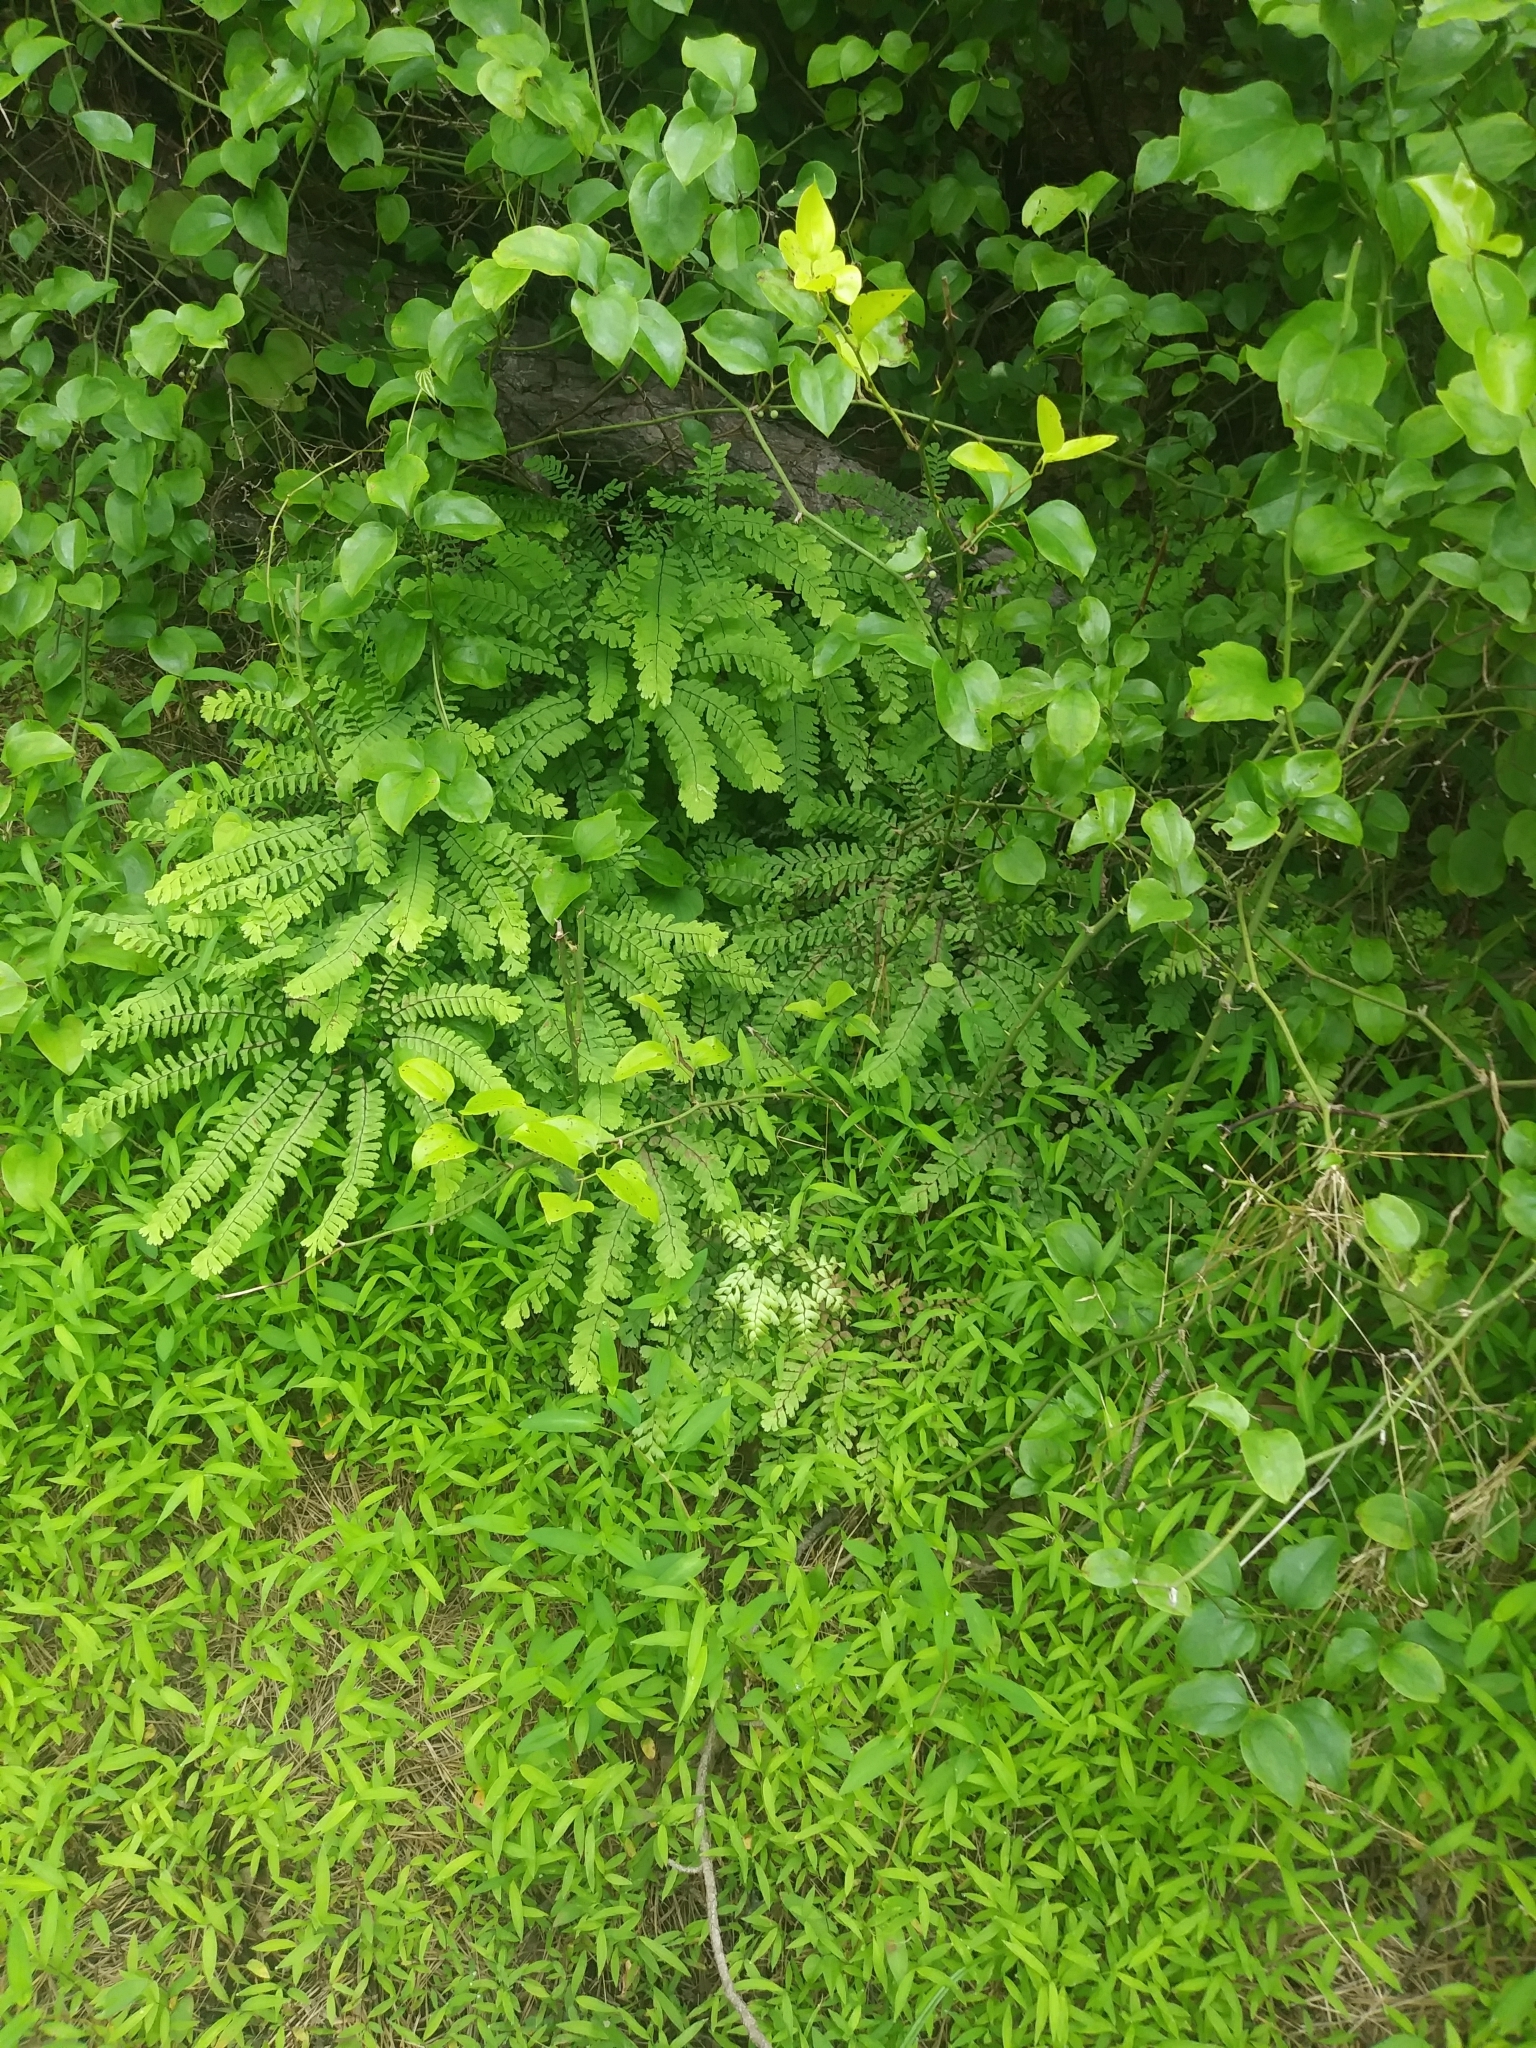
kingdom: Plantae
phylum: Tracheophyta
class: Polypodiopsida
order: Polypodiales
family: Pteridaceae
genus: Adiantum
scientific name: Adiantum pedatum
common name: Five-finger fern
